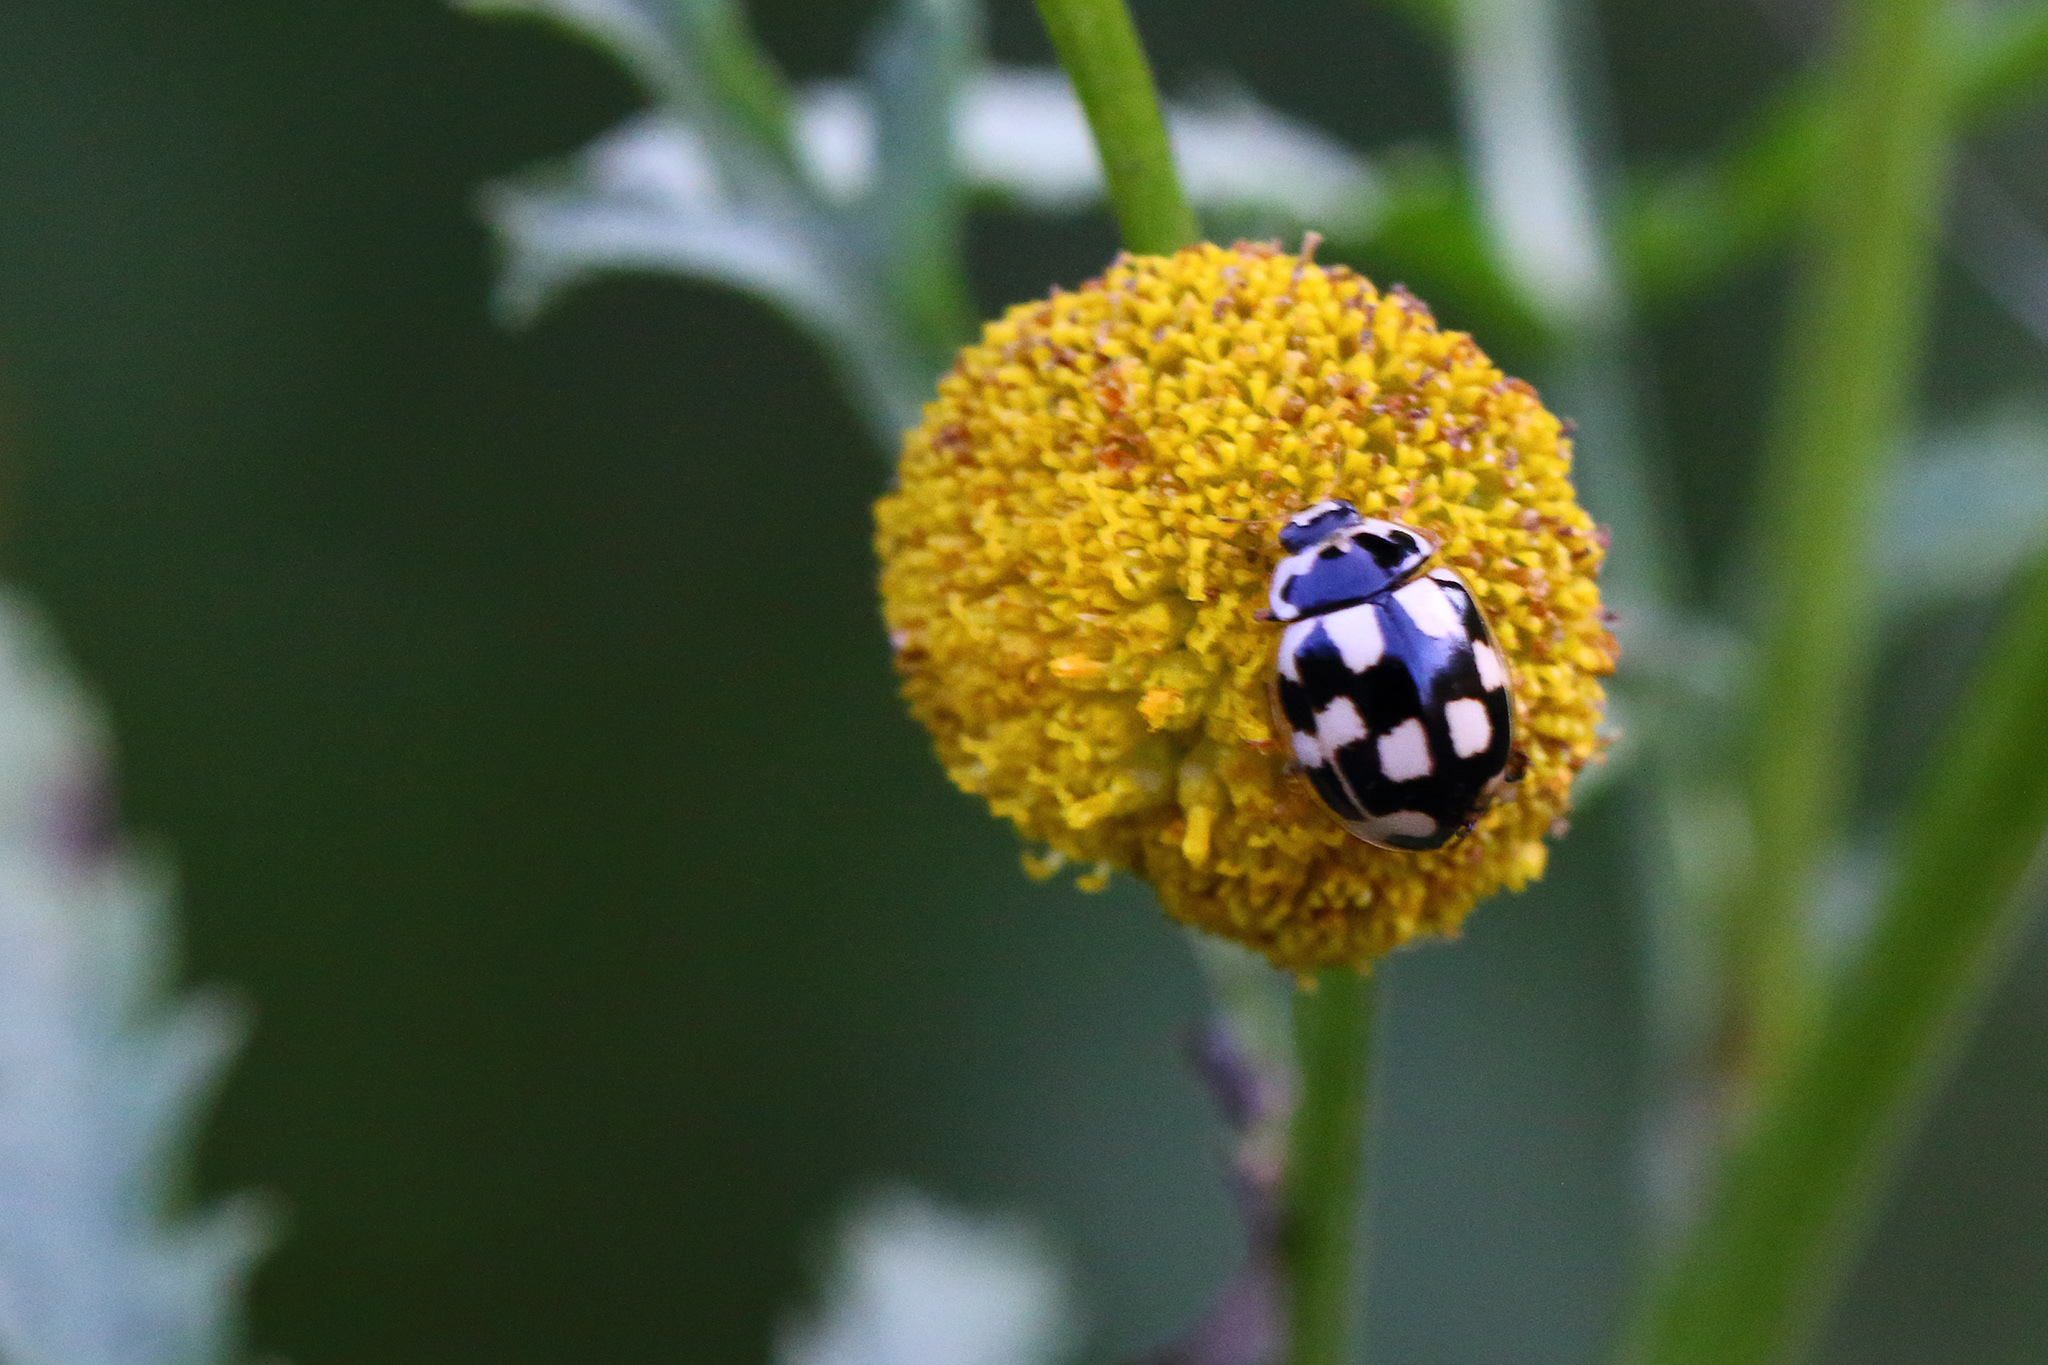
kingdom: Animalia
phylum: Arthropoda
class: Insecta
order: Coleoptera
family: Coccinellidae
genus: Propylaea
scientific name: Propylaea quatuordecimpunctata
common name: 14-spotted ladybird beetle
